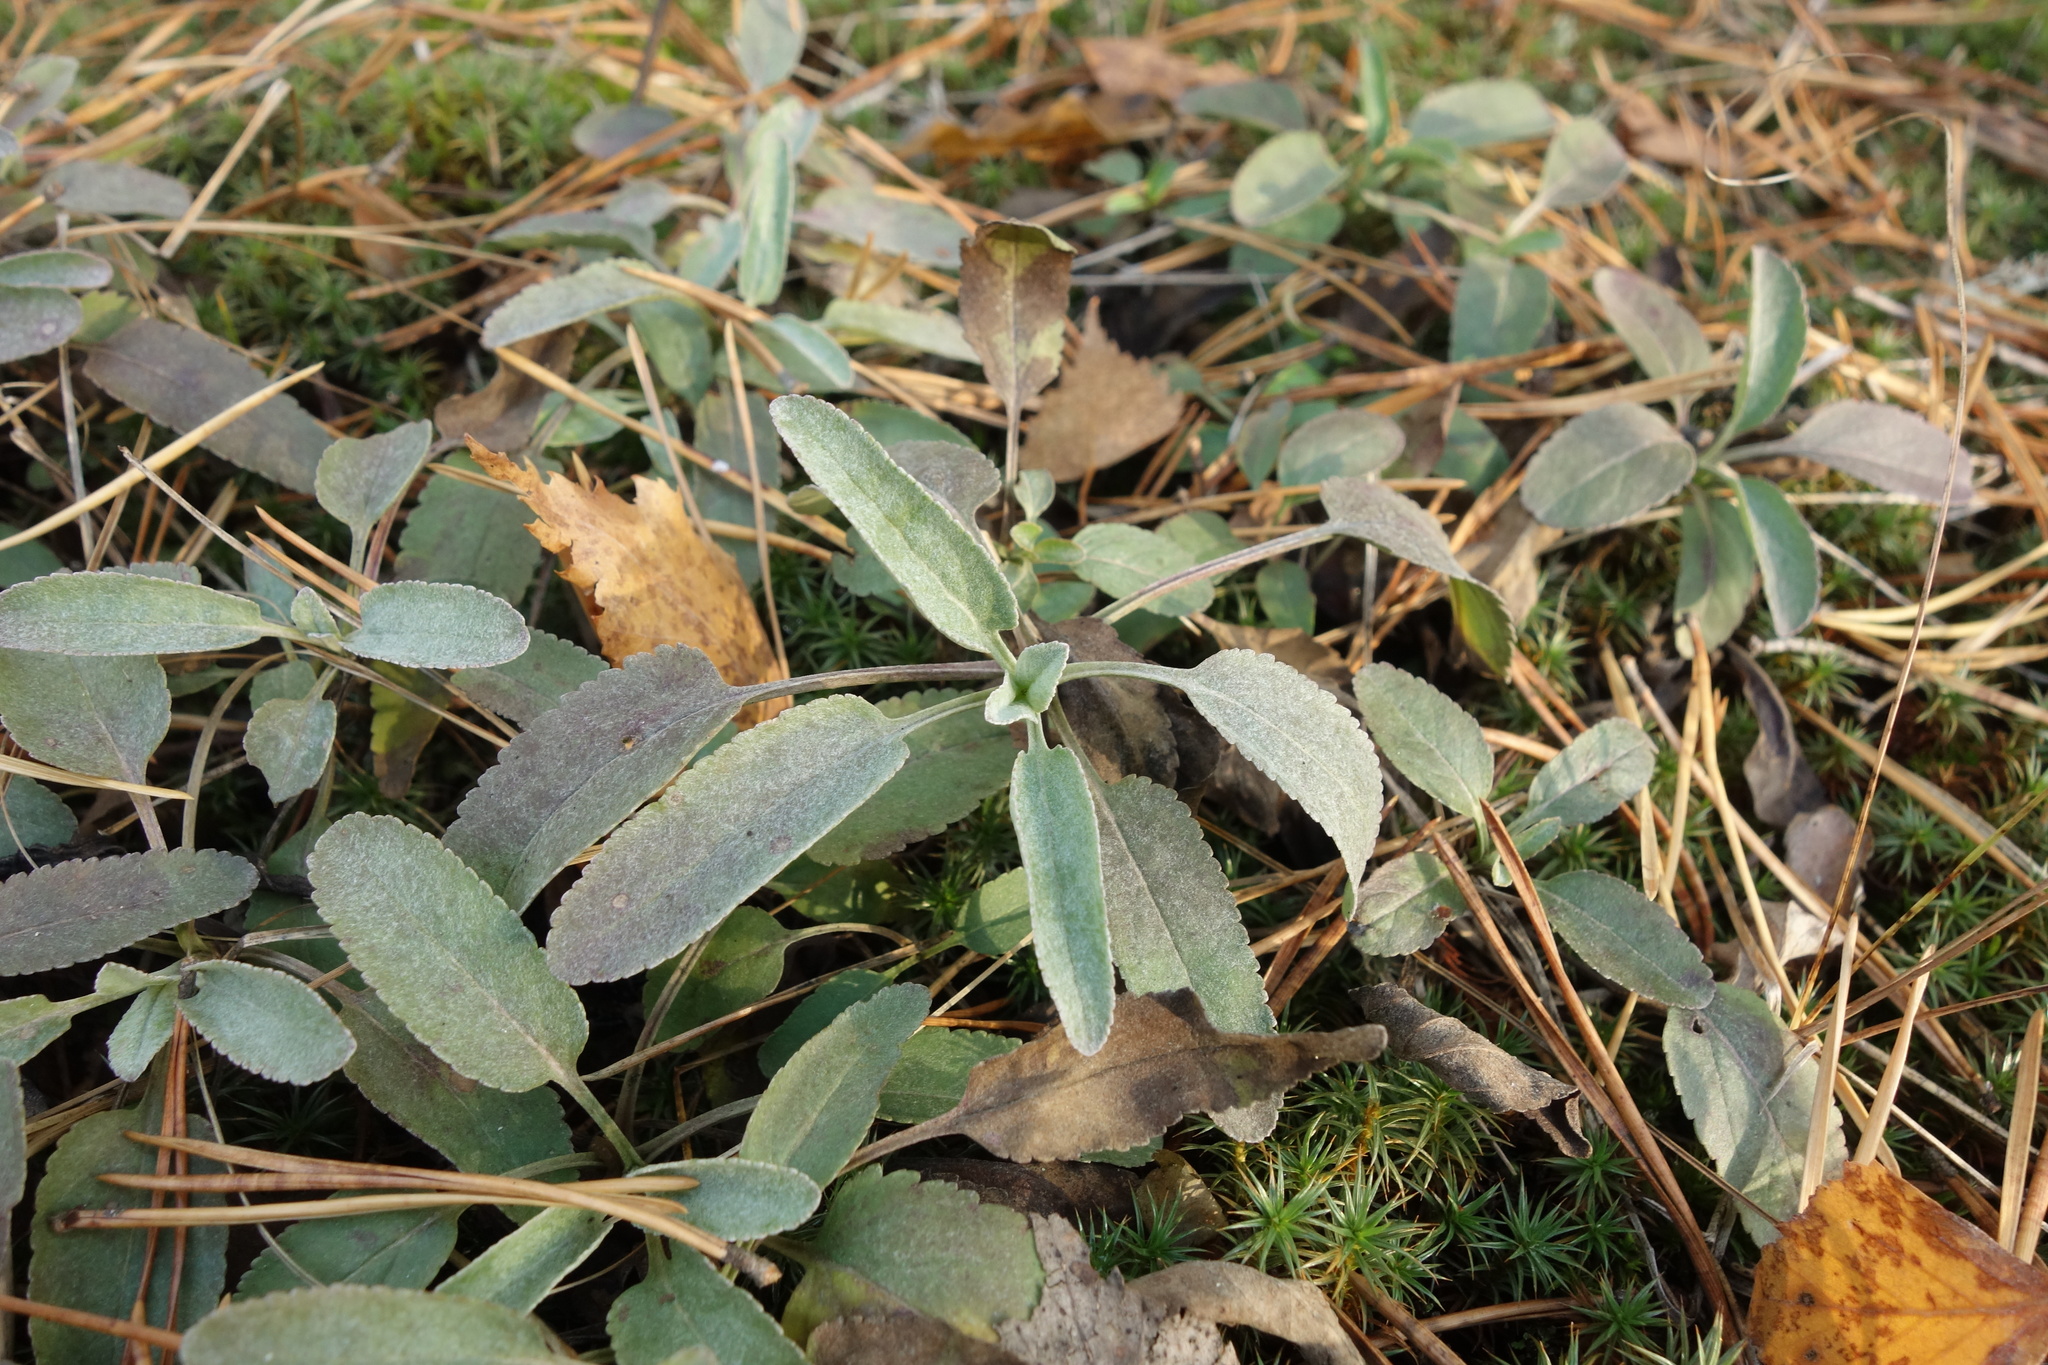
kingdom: Plantae
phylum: Tracheophyta
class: Magnoliopsida
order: Lamiales
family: Plantaginaceae
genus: Veronica
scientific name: Veronica incana
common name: Silver speedwell
